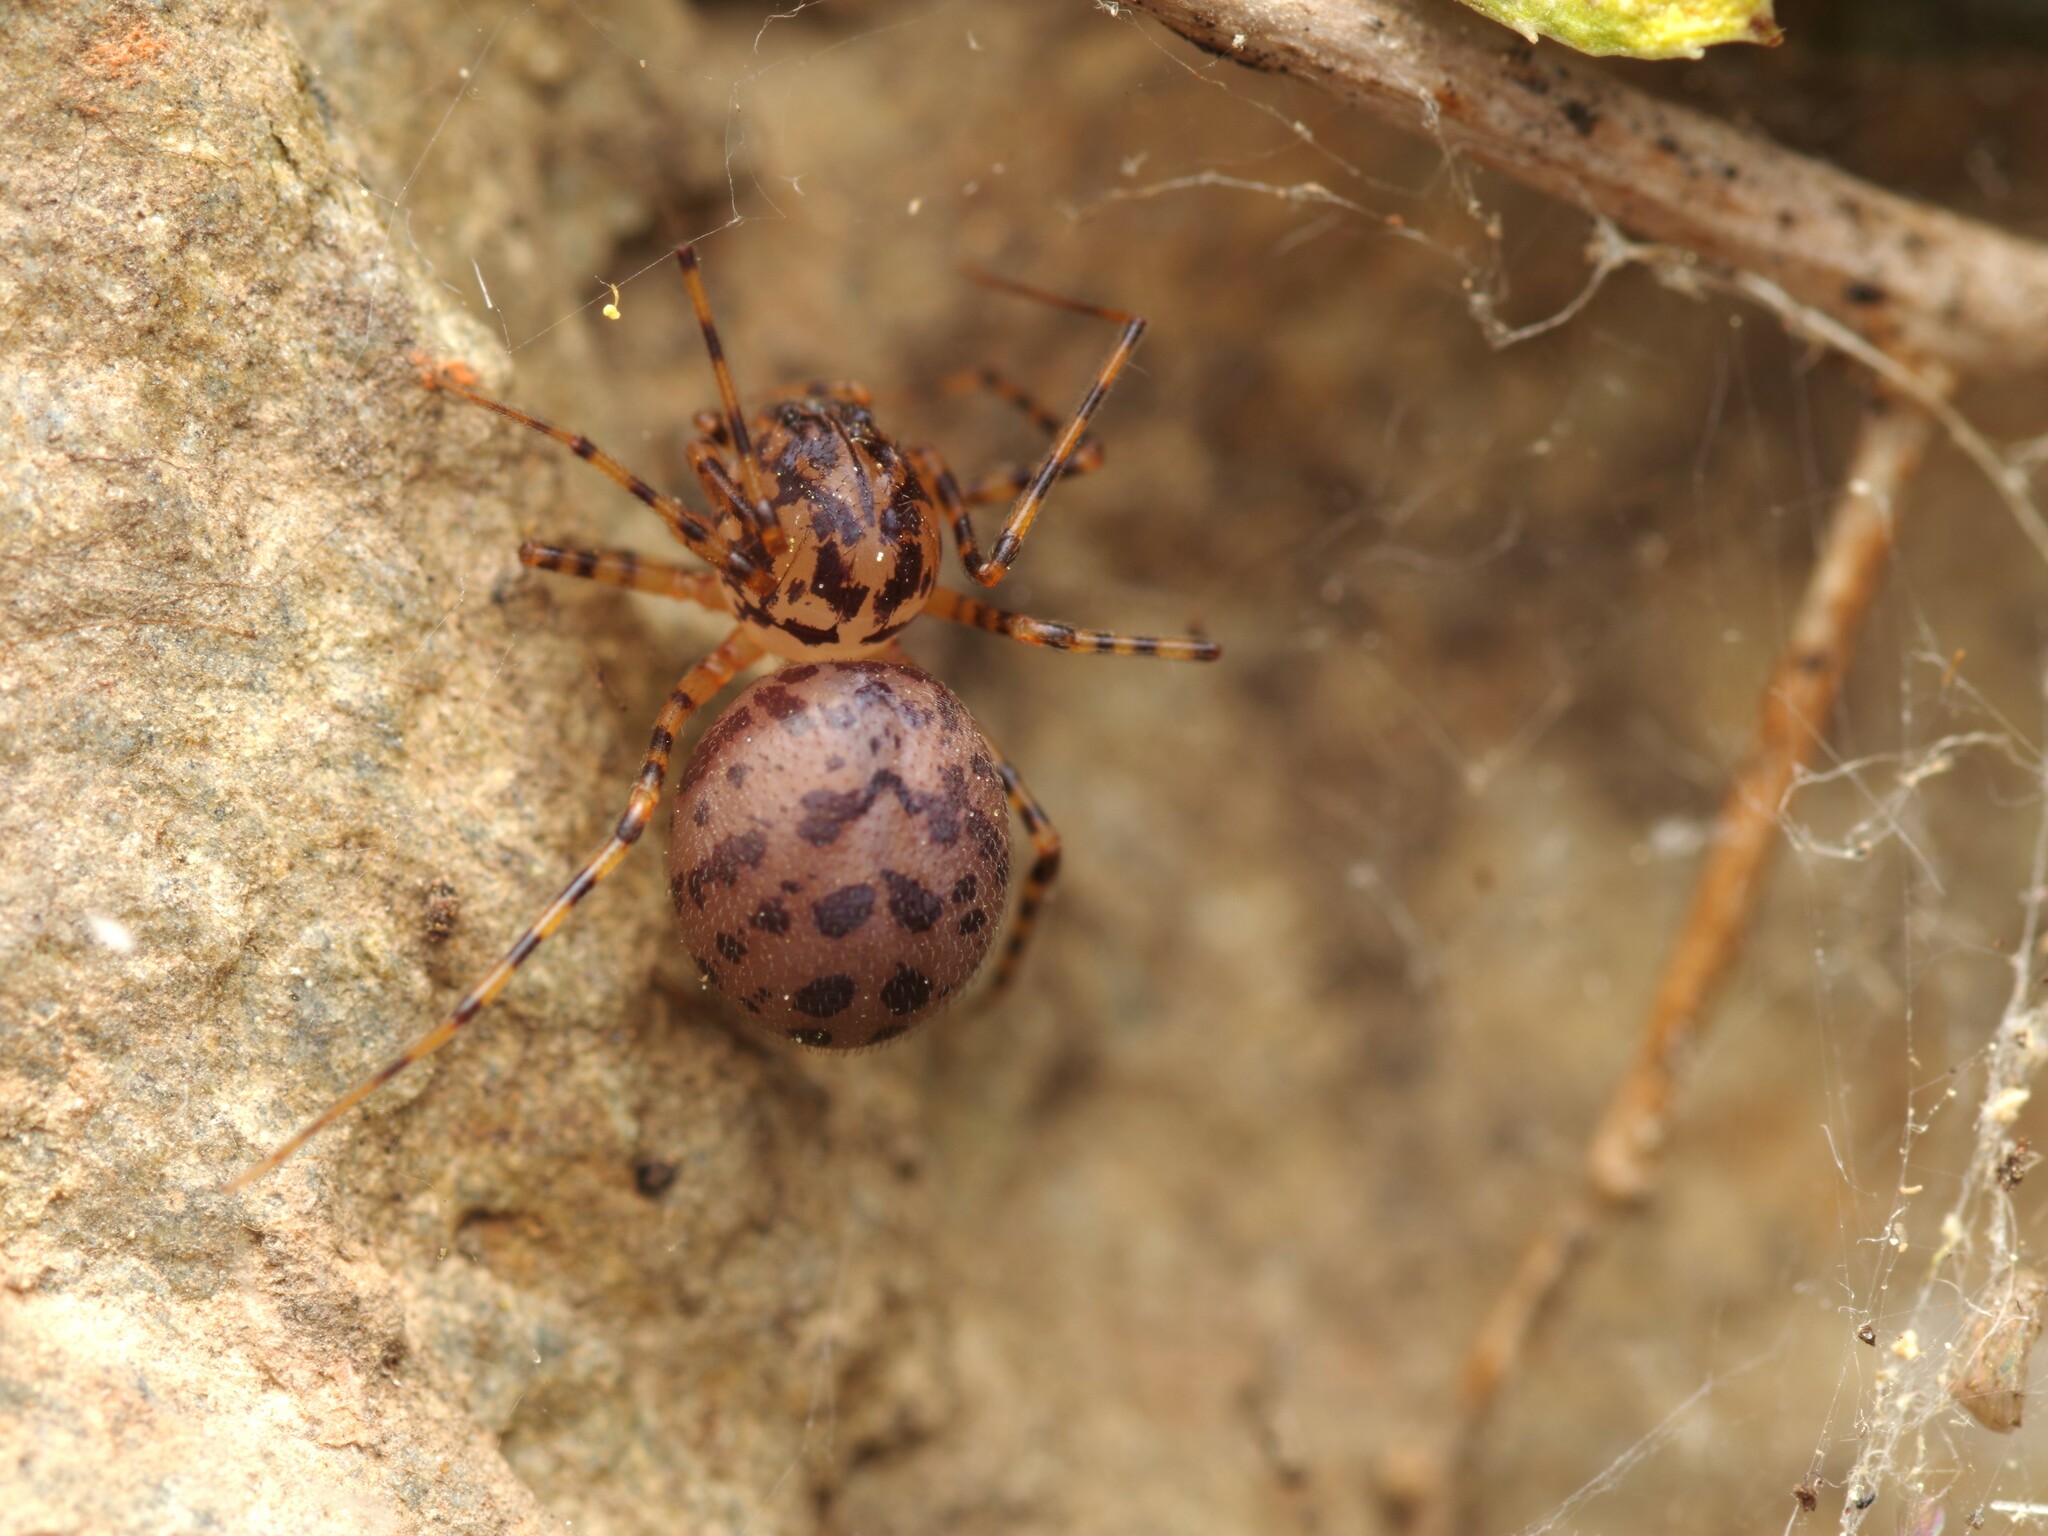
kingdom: Animalia
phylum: Arthropoda
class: Arachnida
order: Araneae
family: Scytodidae
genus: Scytodes
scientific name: Scytodes thoracica
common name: Spitting spider
